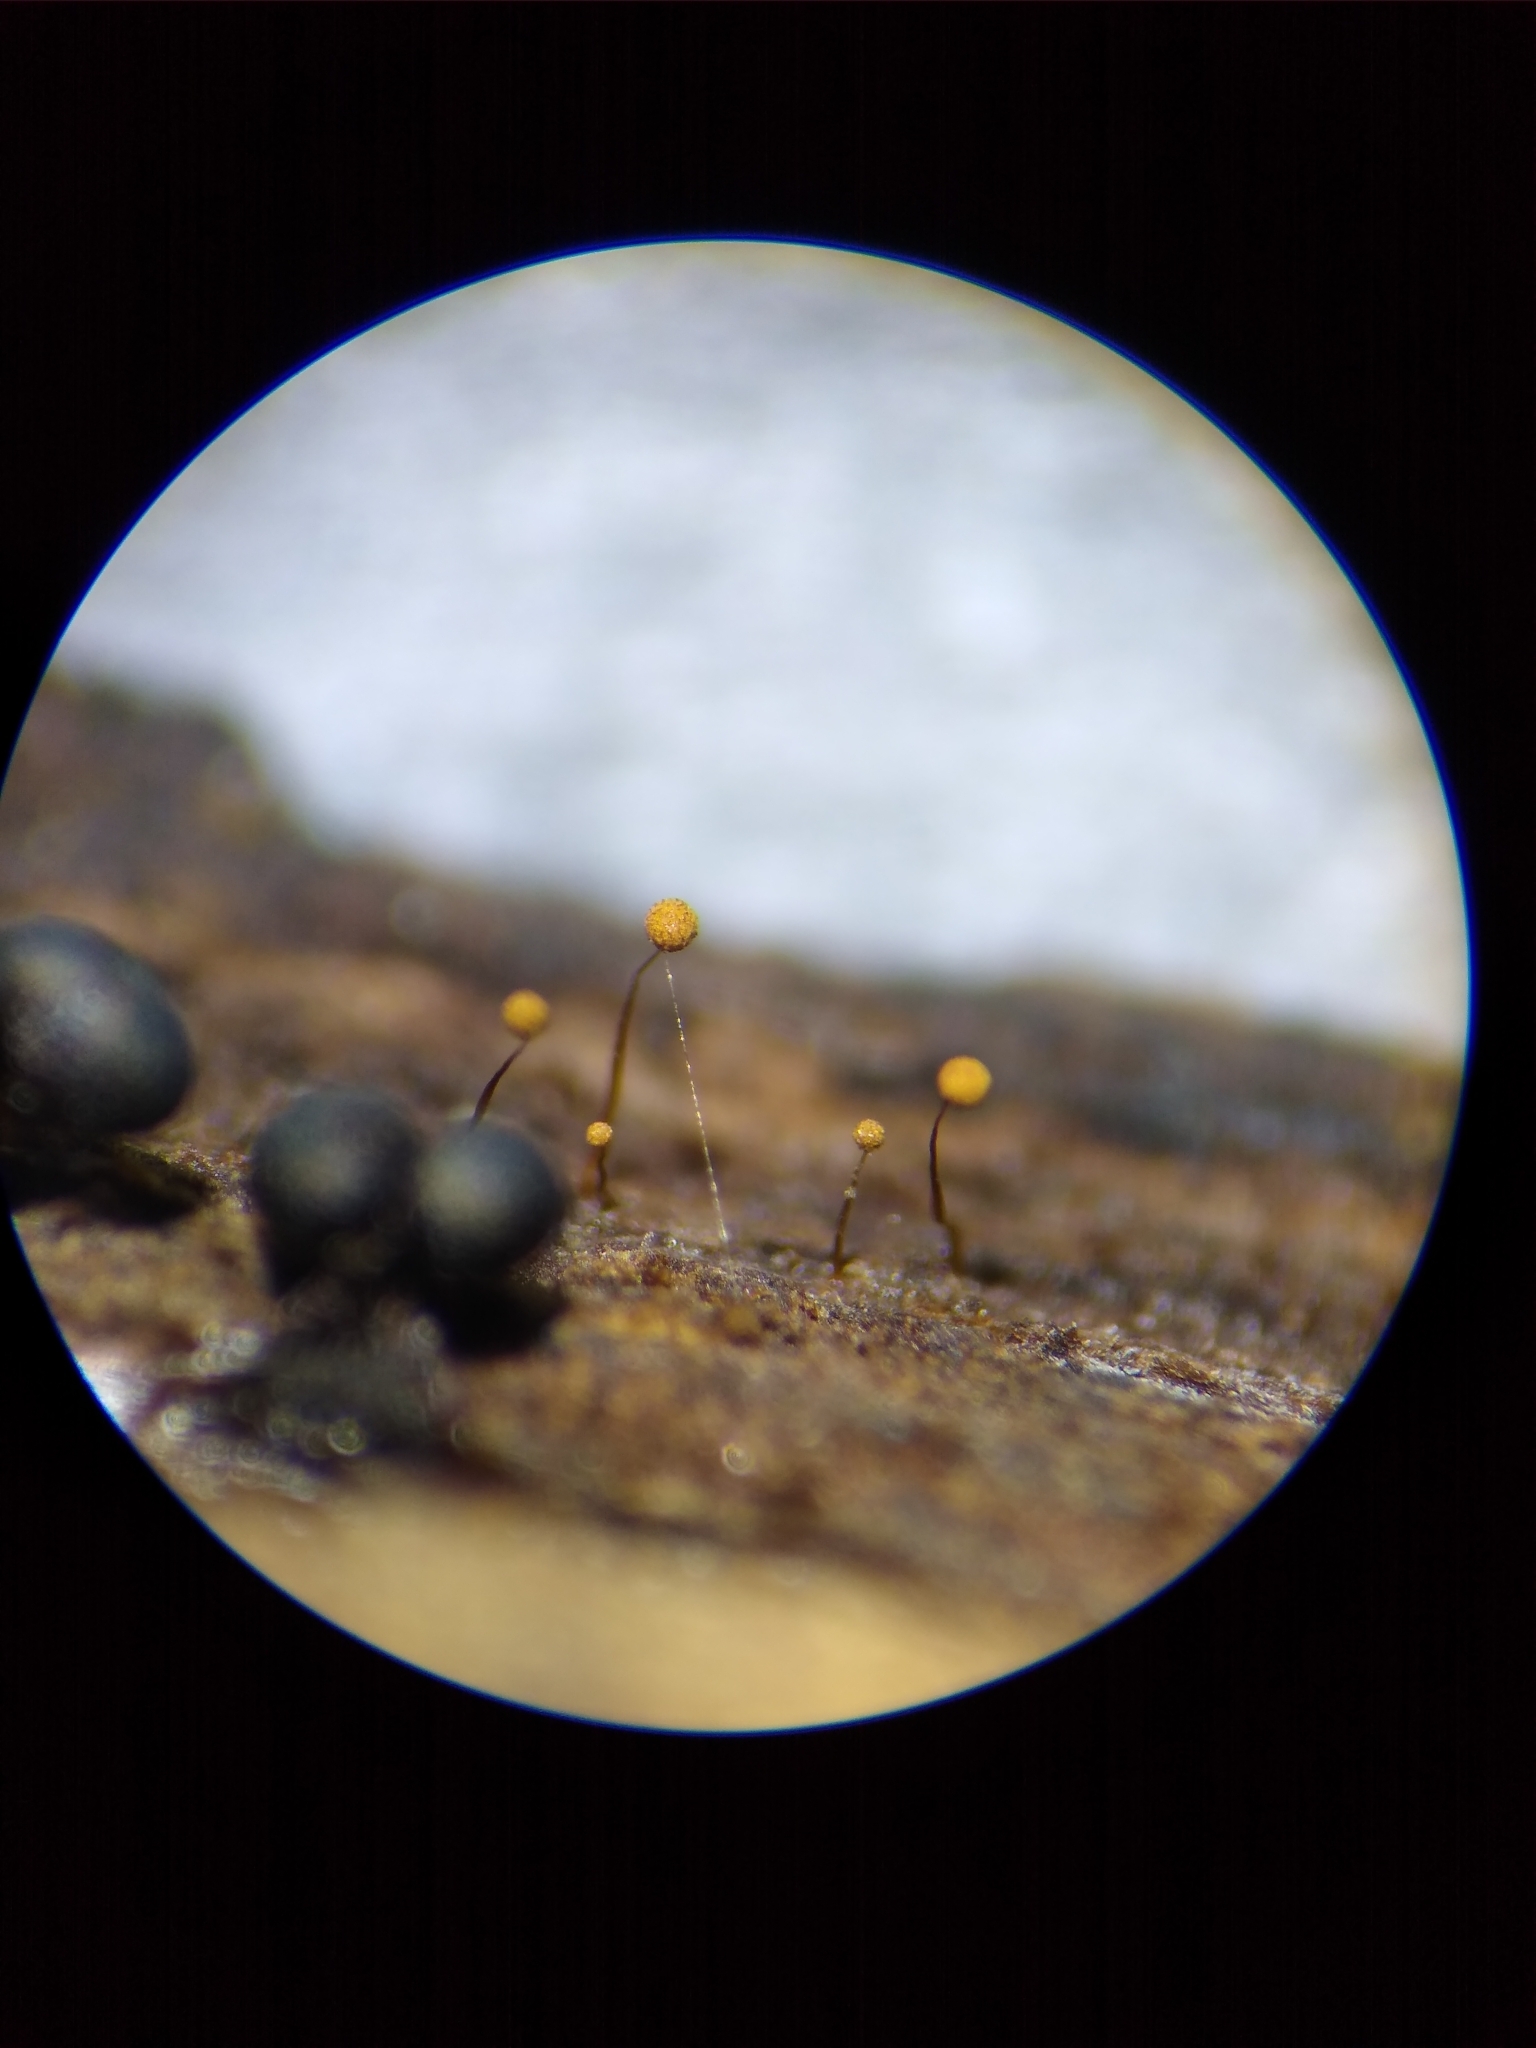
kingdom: Protozoa
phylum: Mycetozoa
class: Myxomycetes
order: Cribrariales
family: Cribrariaceae
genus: Cribraria
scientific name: Cribraria microcarpa
